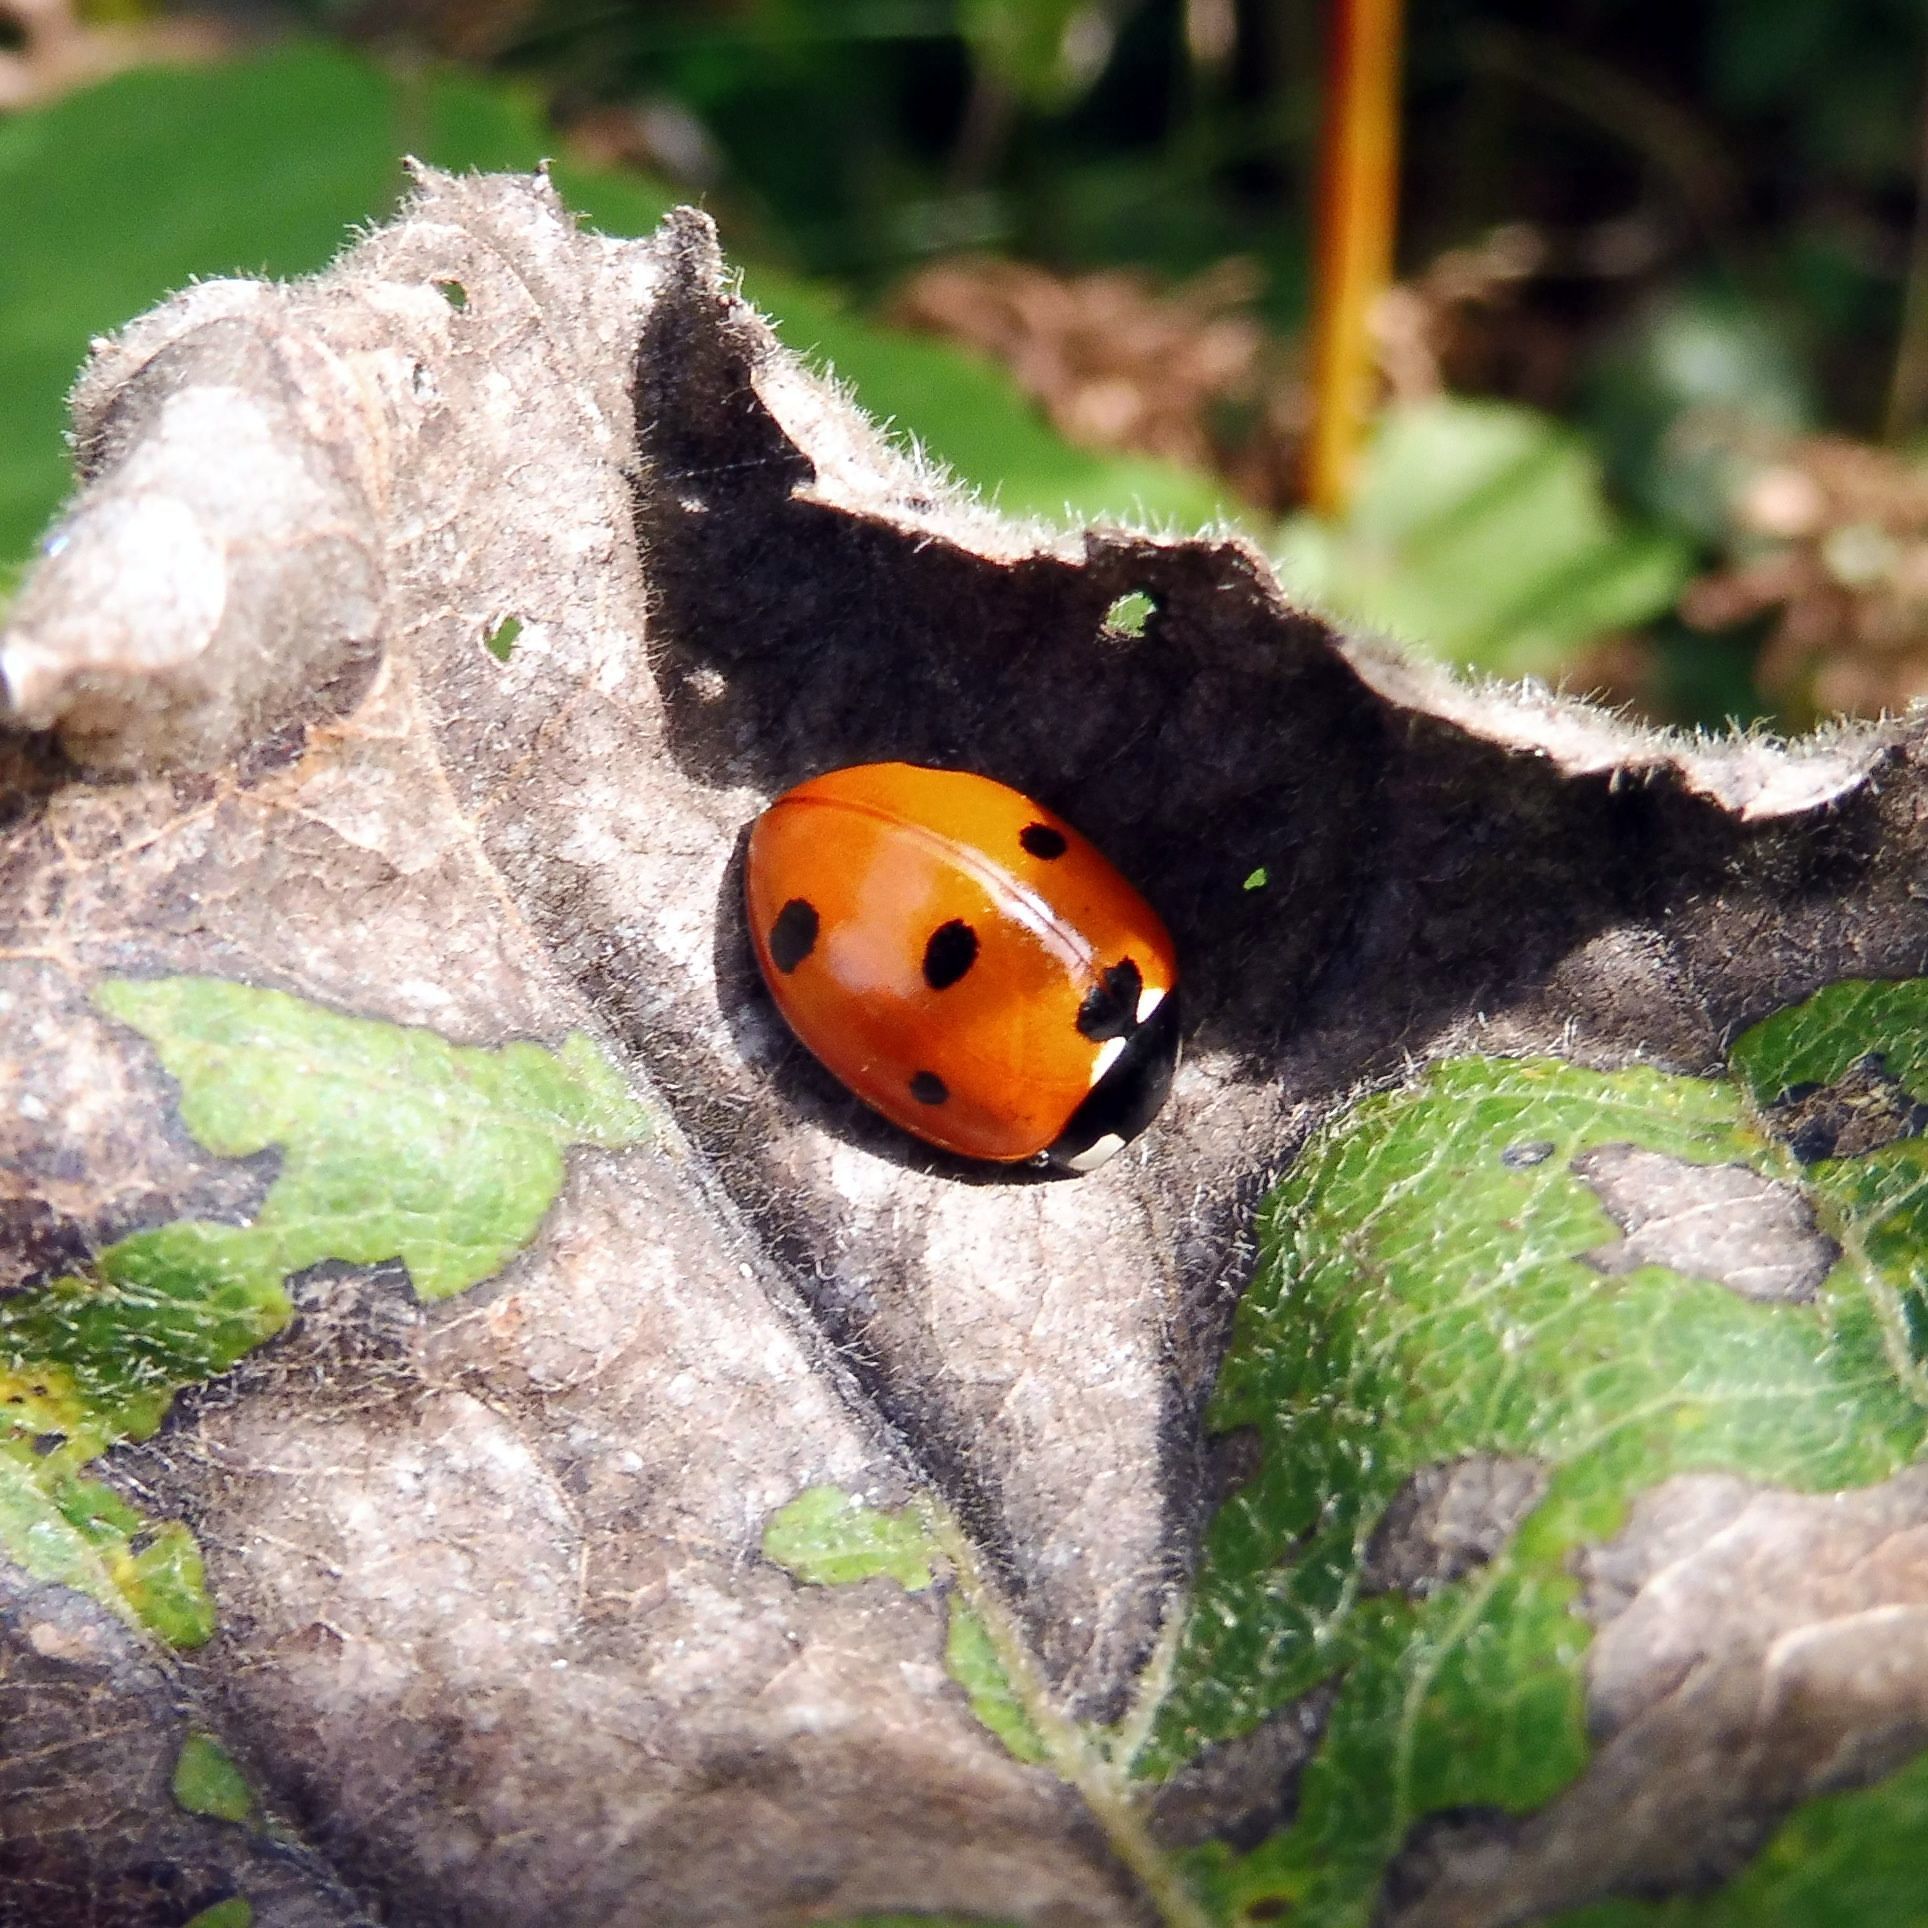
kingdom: Animalia
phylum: Arthropoda
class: Insecta
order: Coleoptera
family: Coccinellidae
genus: Coccinella
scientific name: Coccinella septempunctata
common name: Sevenspotted lady beetle
